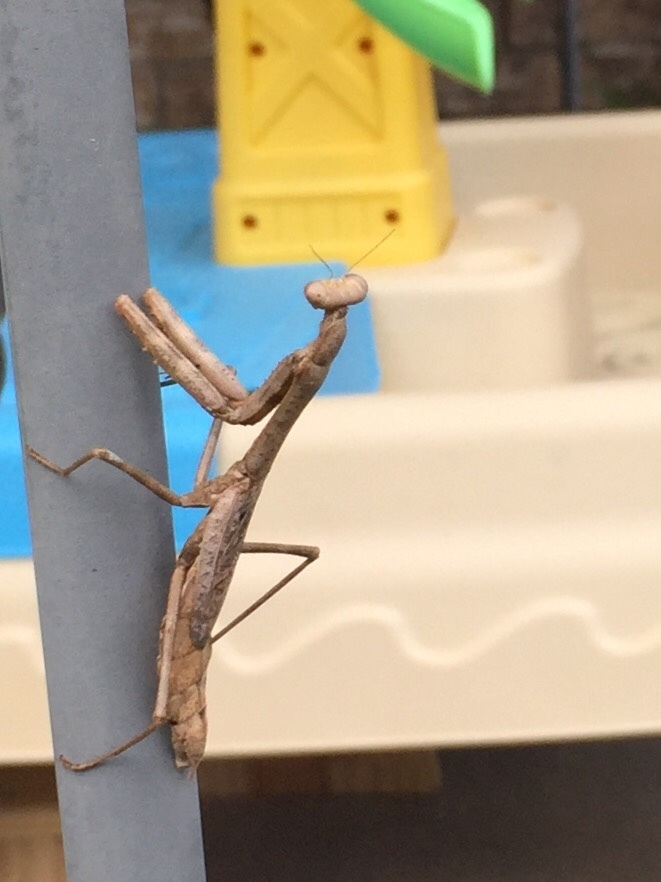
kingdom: Animalia
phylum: Arthropoda
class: Insecta
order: Mantodea
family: Mantidae
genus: Stagmomantis
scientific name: Stagmomantis carolina
